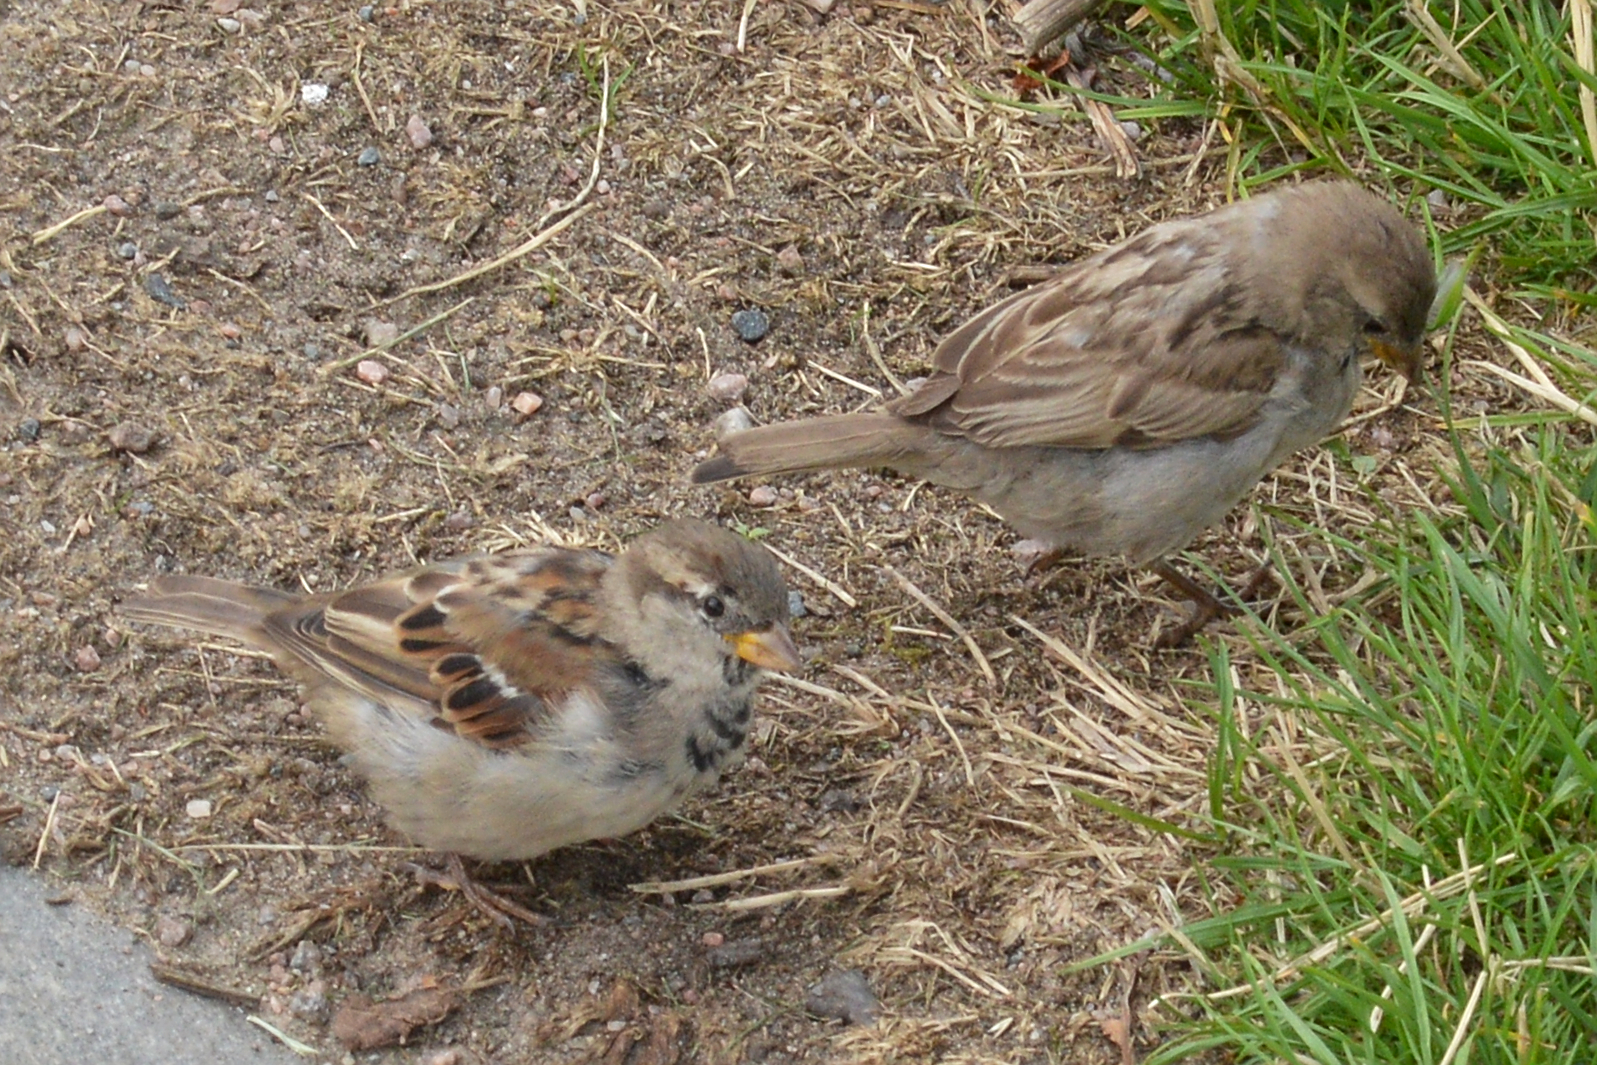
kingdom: Animalia
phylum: Chordata
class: Aves
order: Passeriformes
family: Passeridae
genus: Passer
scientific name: Passer domesticus
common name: House sparrow
